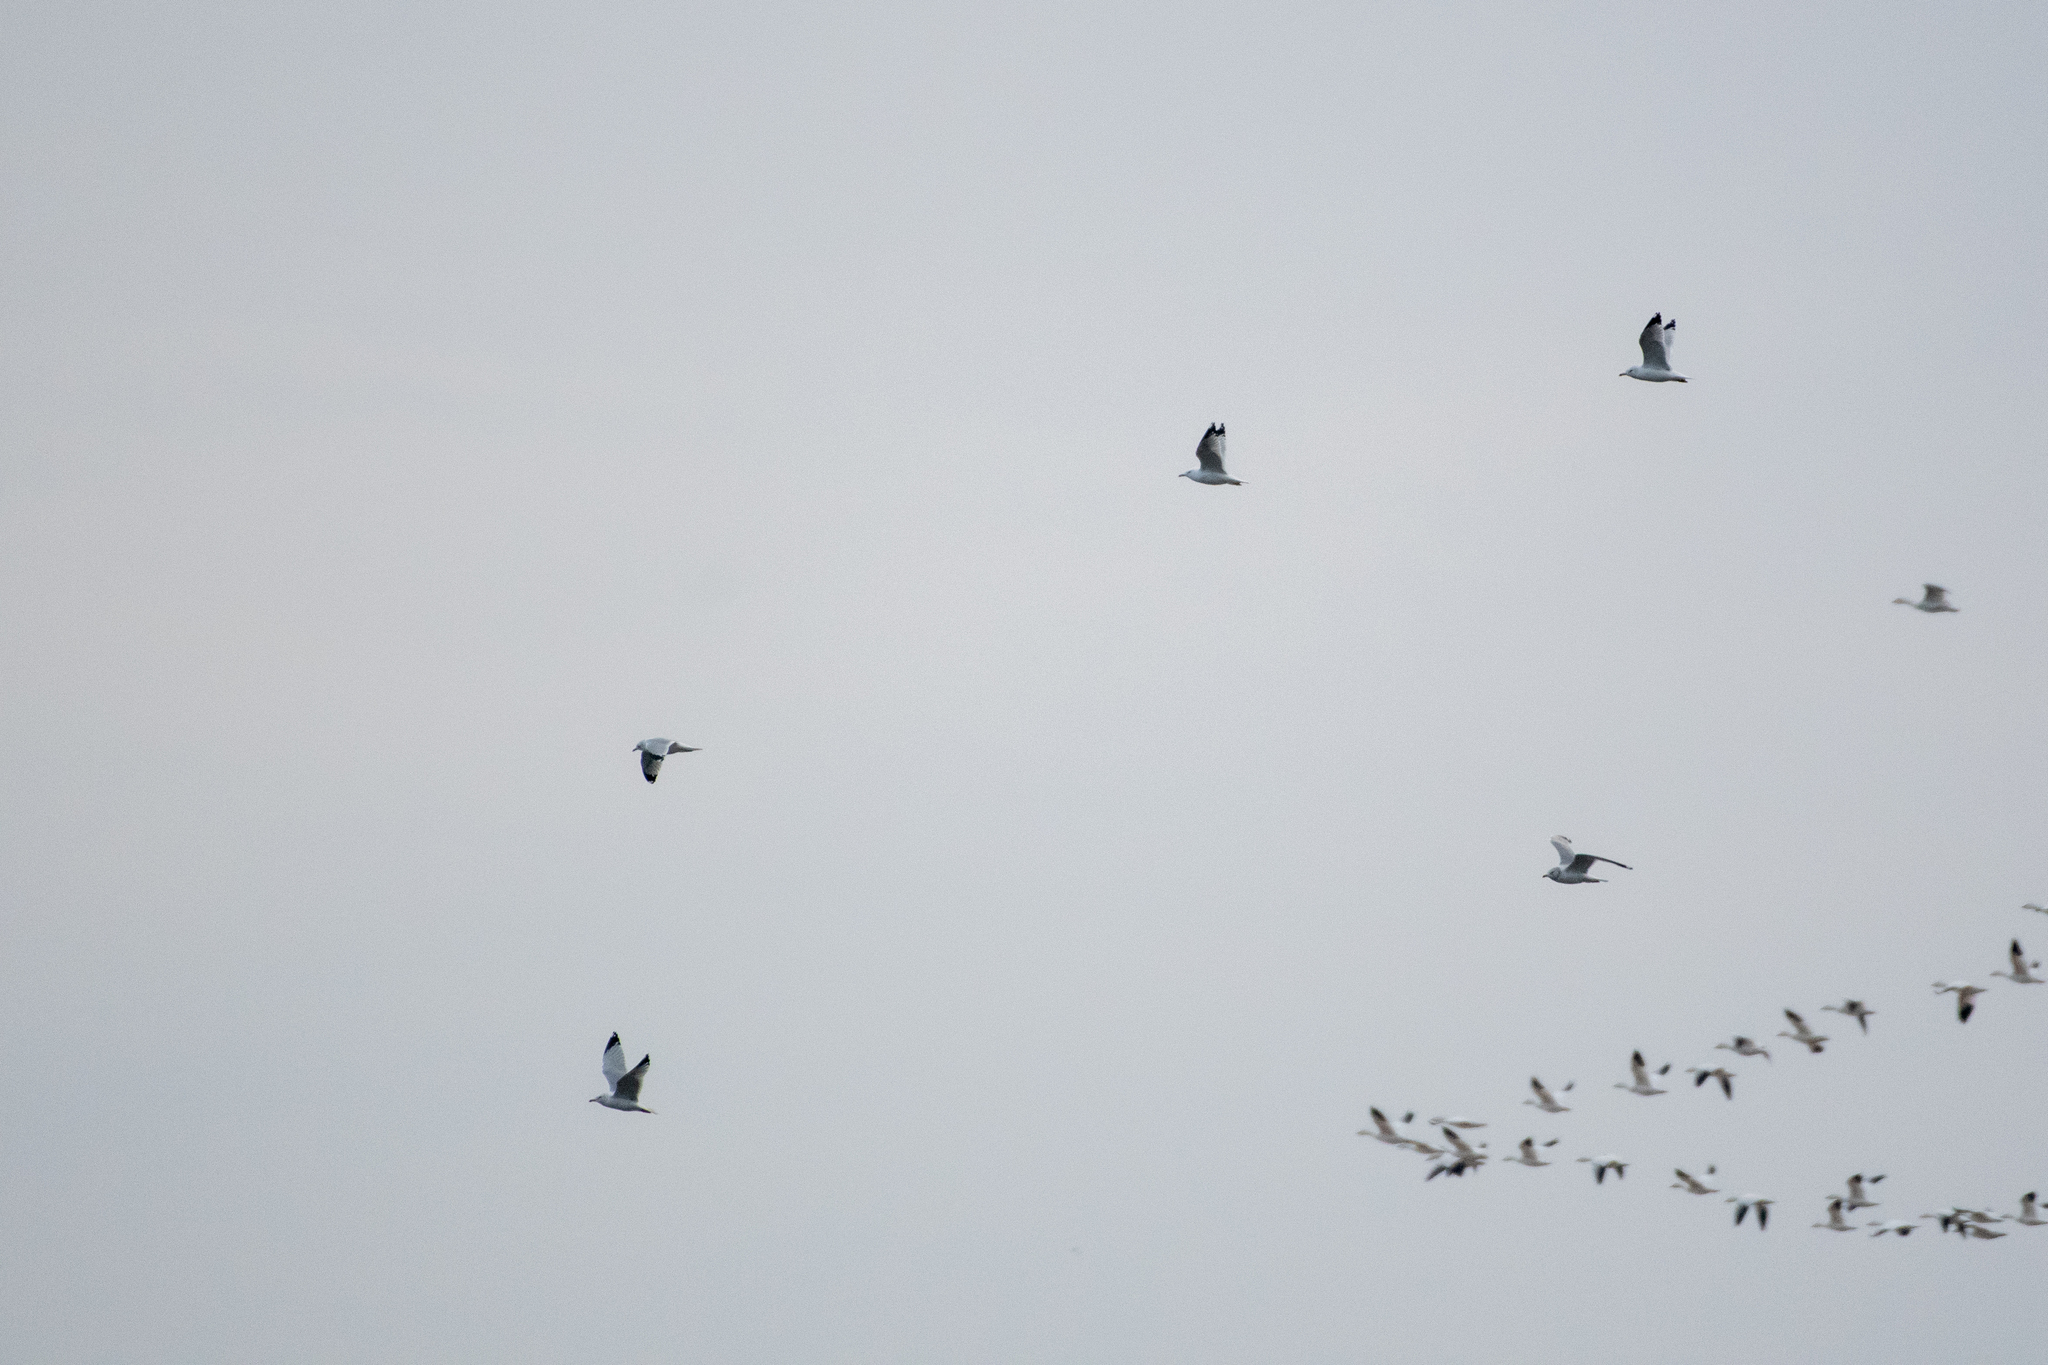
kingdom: Animalia
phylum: Chordata
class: Aves
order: Charadriiformes
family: Laridae
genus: Larus
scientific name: Larus delawarensis
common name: Ring-billed gull
